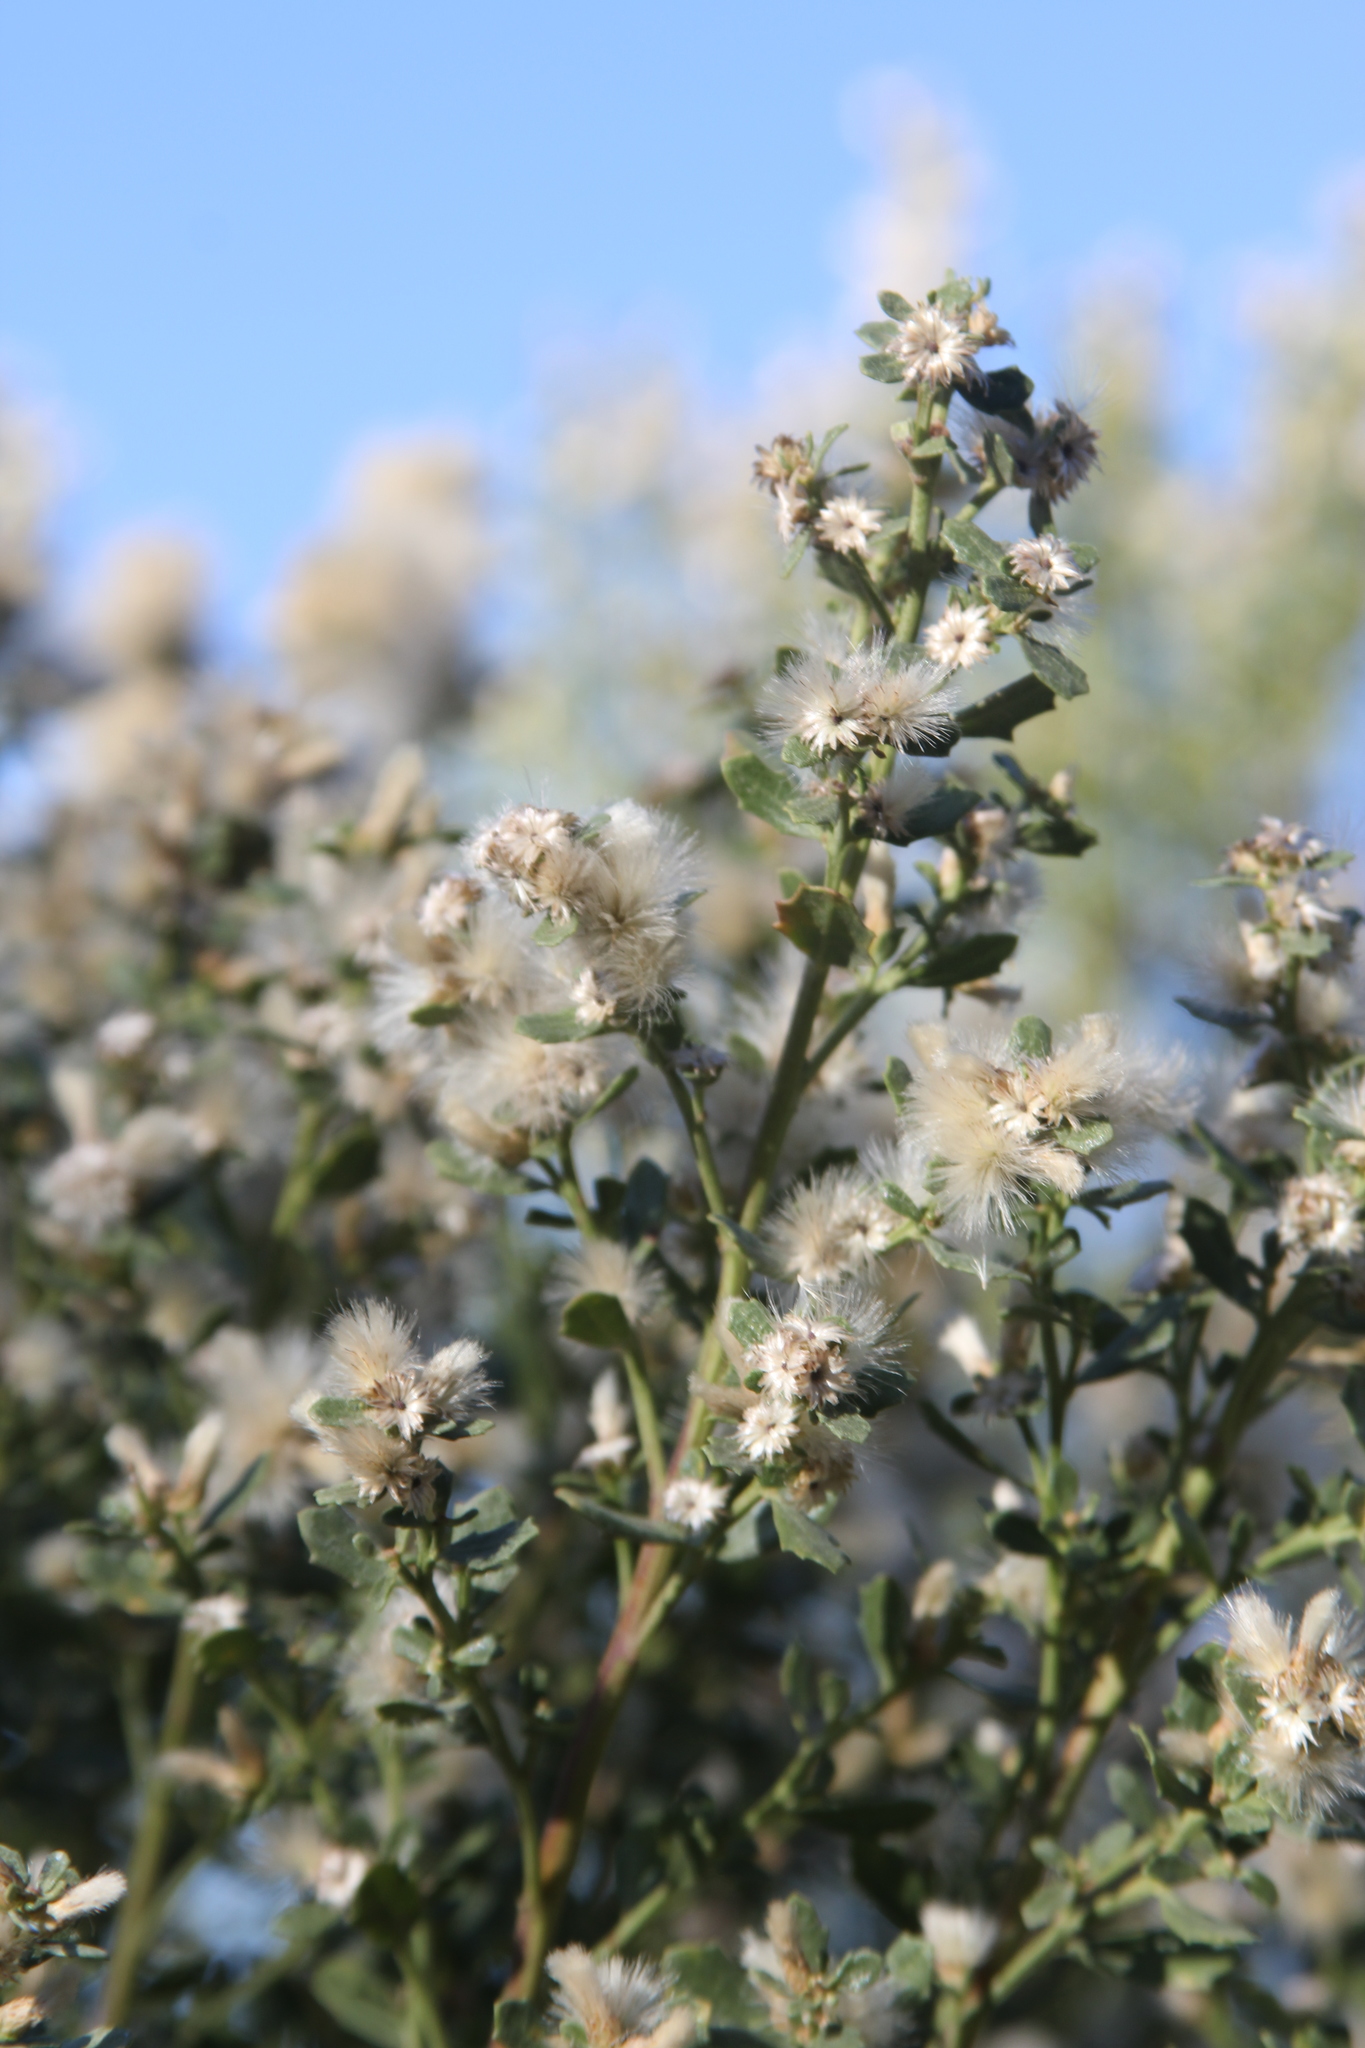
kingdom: Plantae
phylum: Tracheophyta
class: Magnoliopsida
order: Asterales
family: Asteraceae
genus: Baccharis
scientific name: Baccharis pilularis
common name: Coyotebrush
